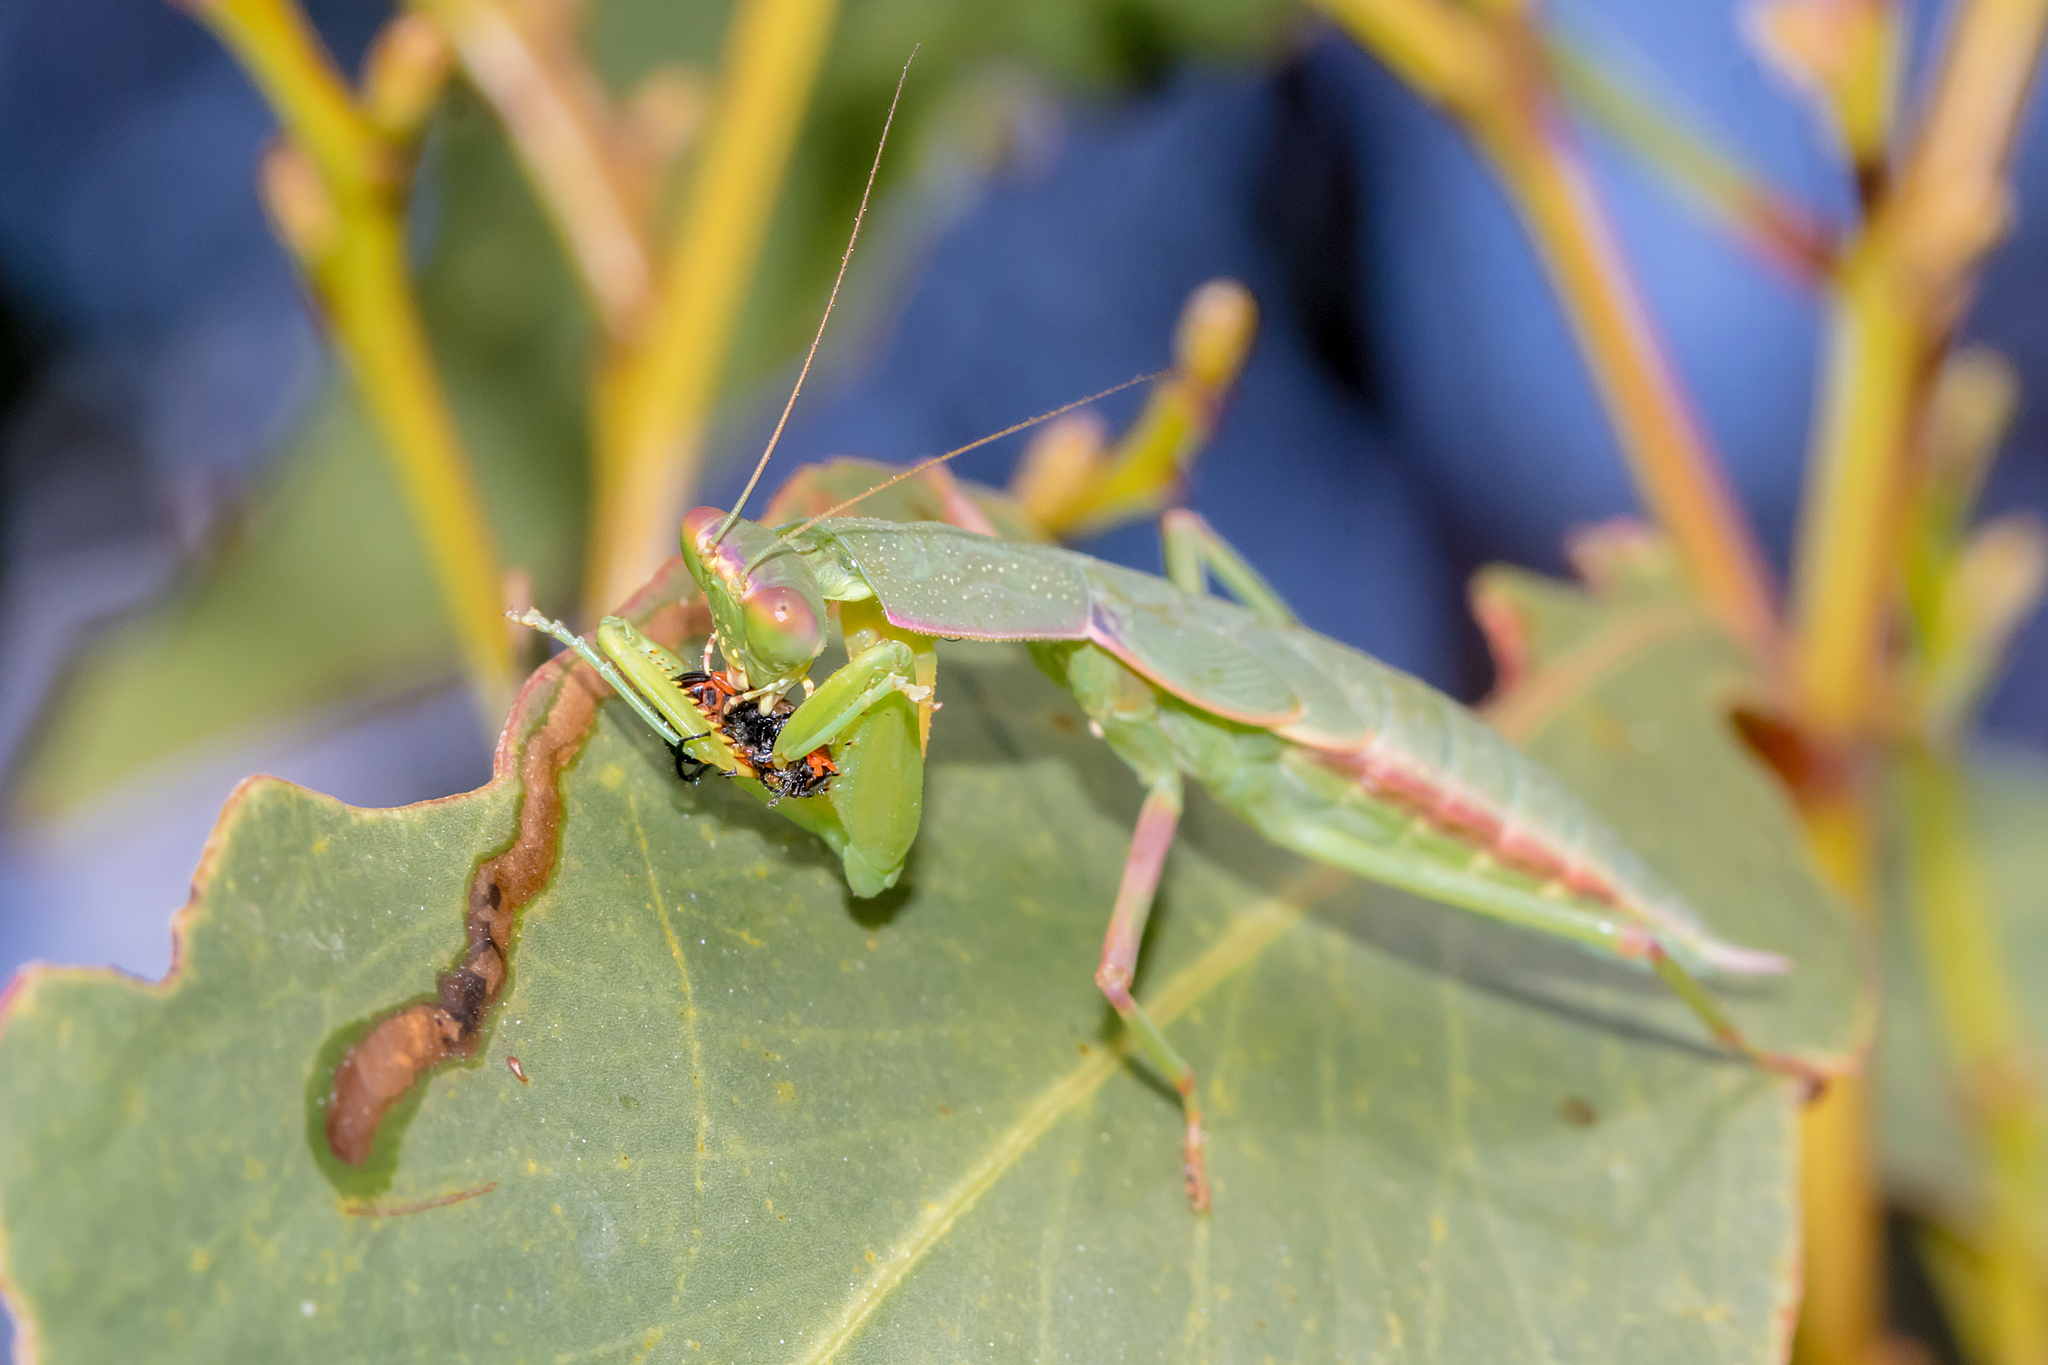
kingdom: Animalia
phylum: Arthropoda
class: Insecta
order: Mantodea
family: Mantidae
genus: Orthodera
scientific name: Orthodera ministralis
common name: Mantis
